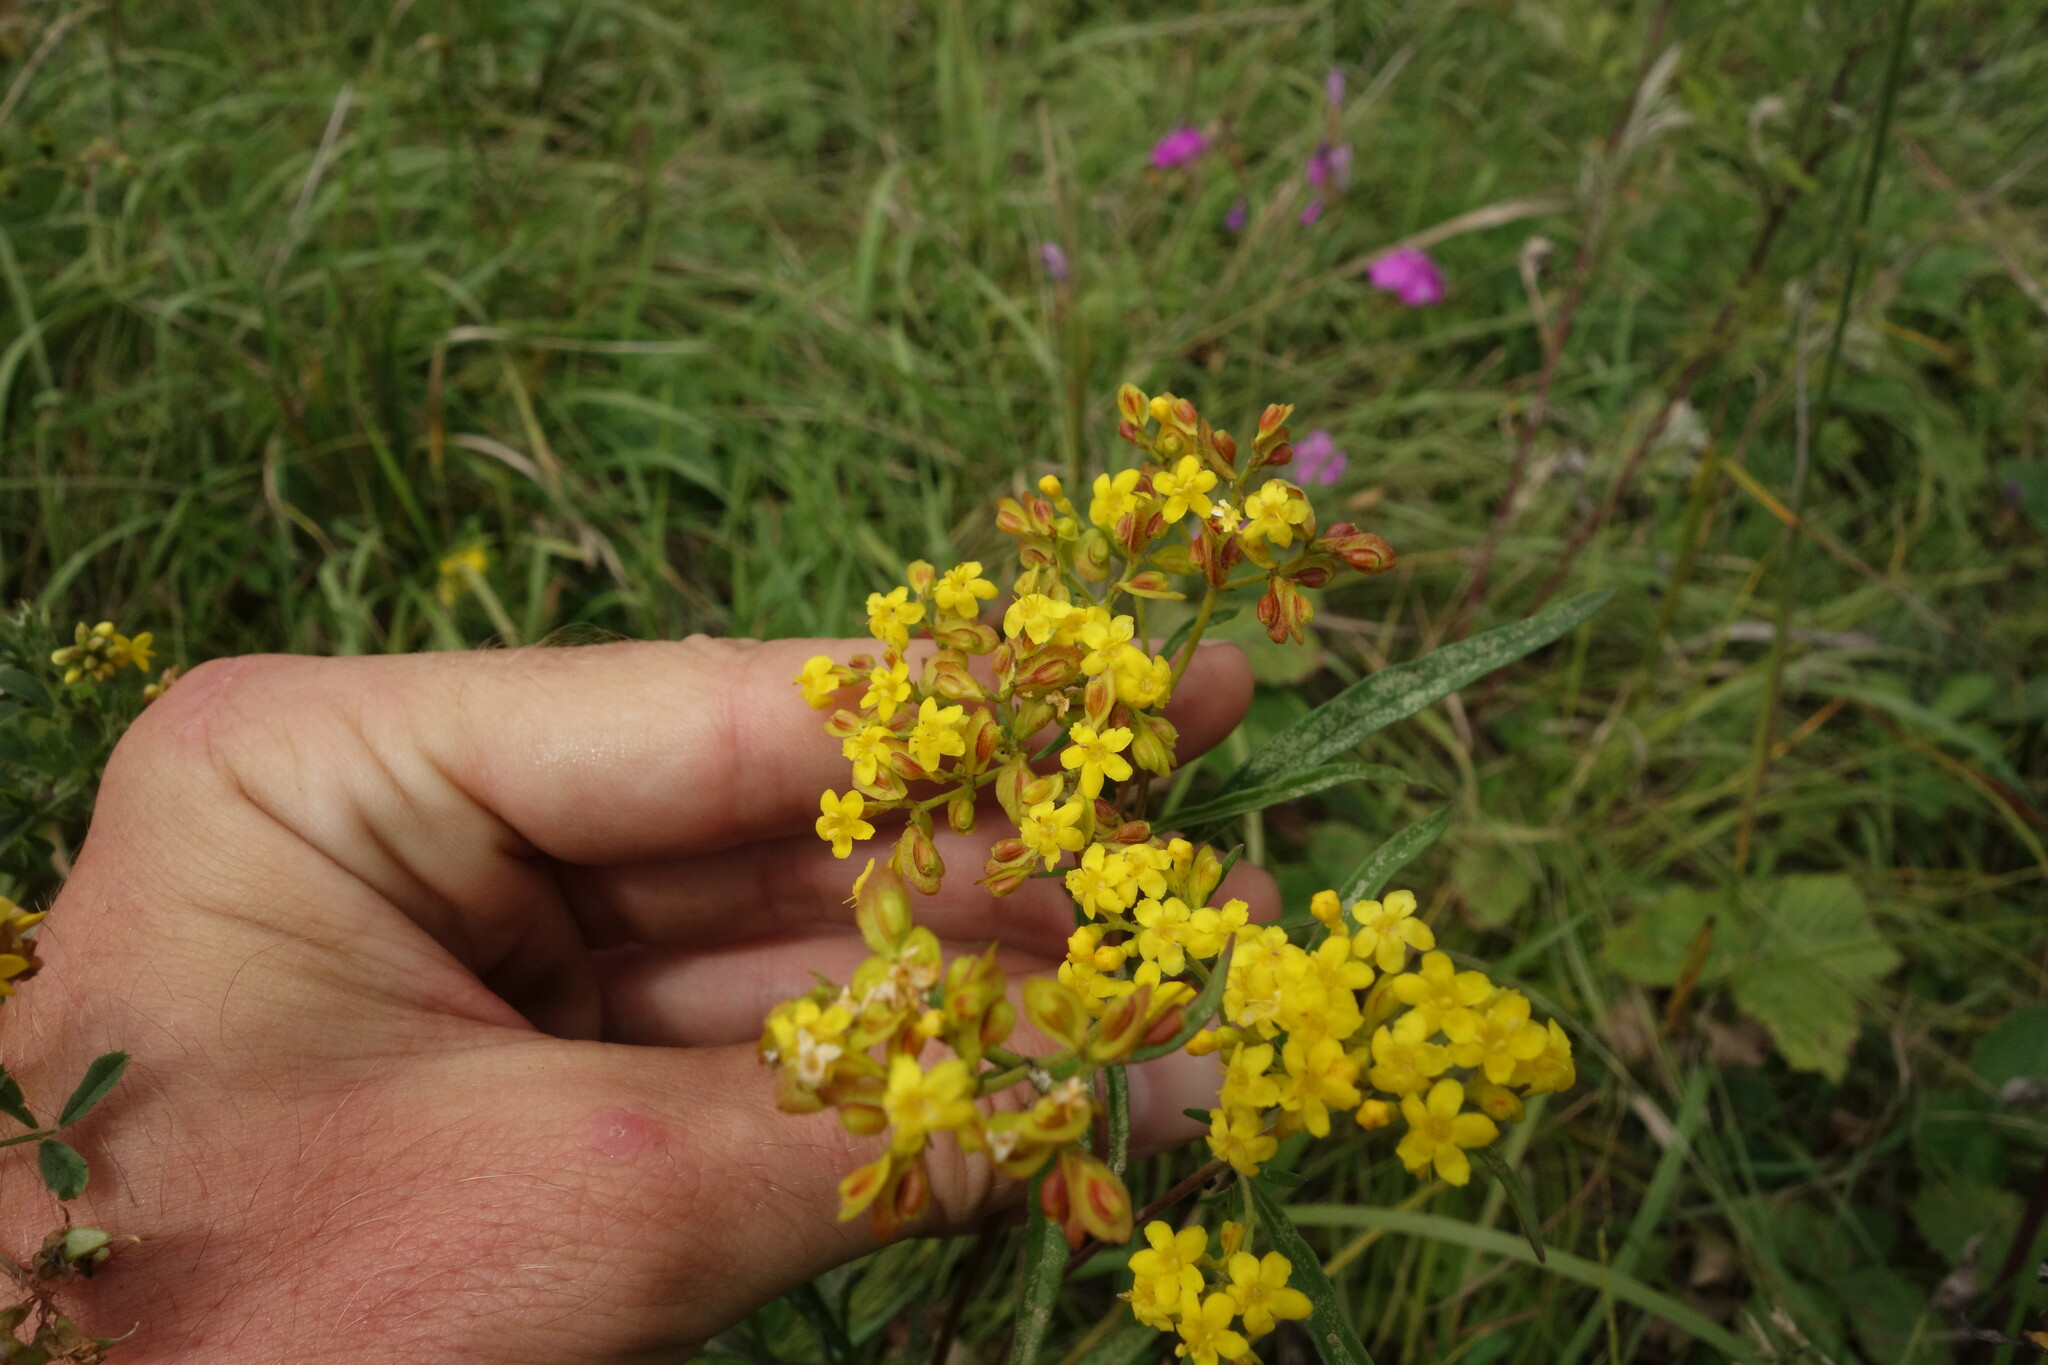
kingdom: Plantae
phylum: Tracheophyta
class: Magnoliopsida
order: Dipsacales
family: Caprifoliaceae
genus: Patrinia
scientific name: Patrinia rupestris
